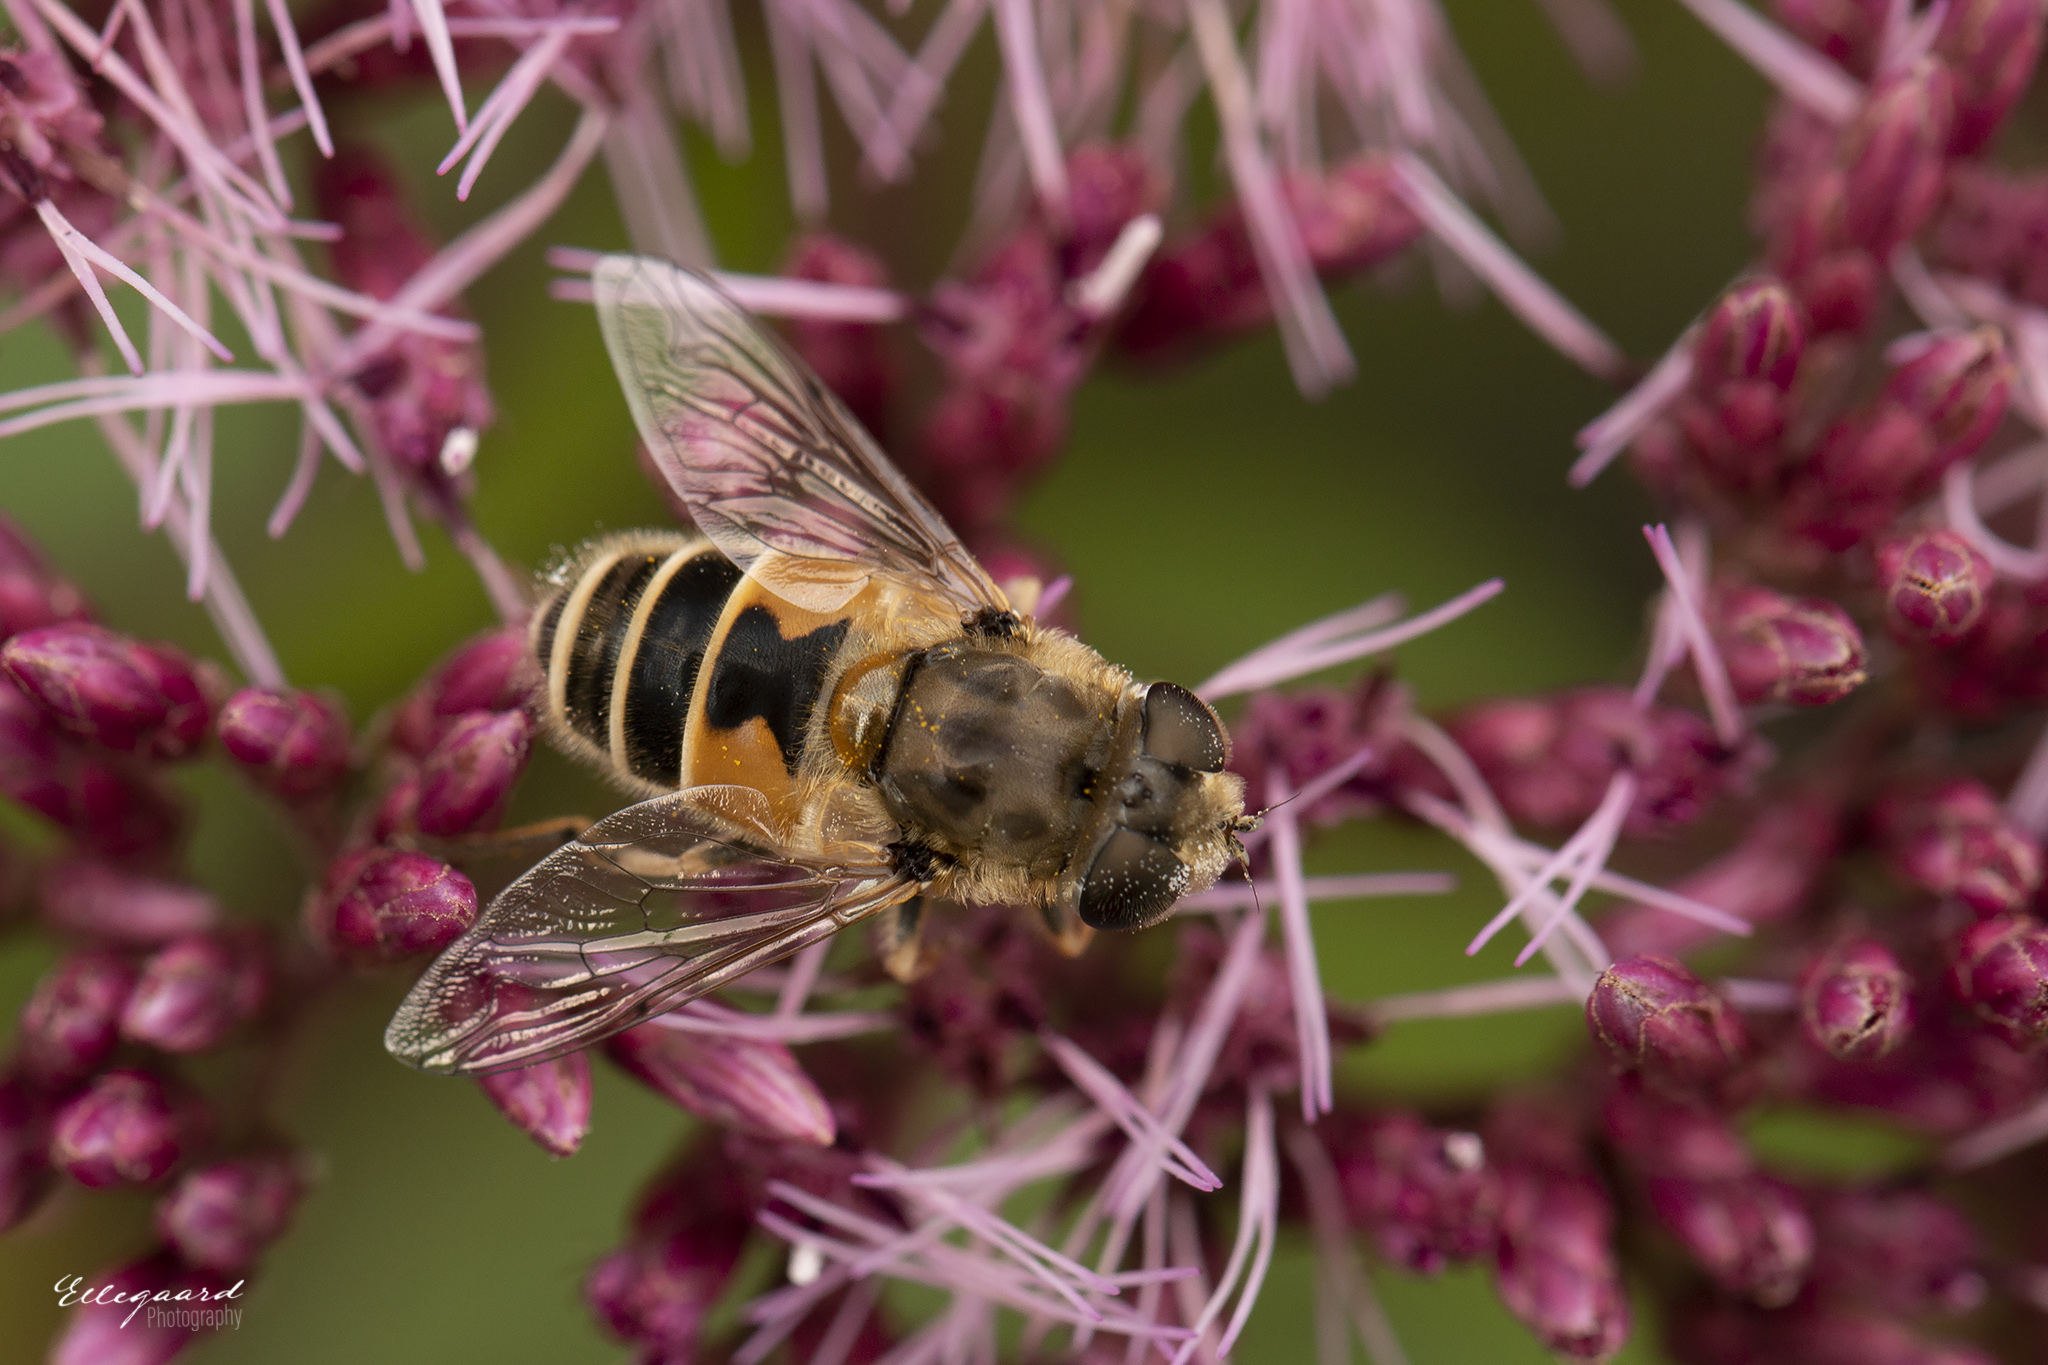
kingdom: Animalia
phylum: Arthropoda
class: Insecta
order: Diptera
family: Syrphidae
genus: Eristalis
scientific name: Eristalis arbustorum
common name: Hover fly
